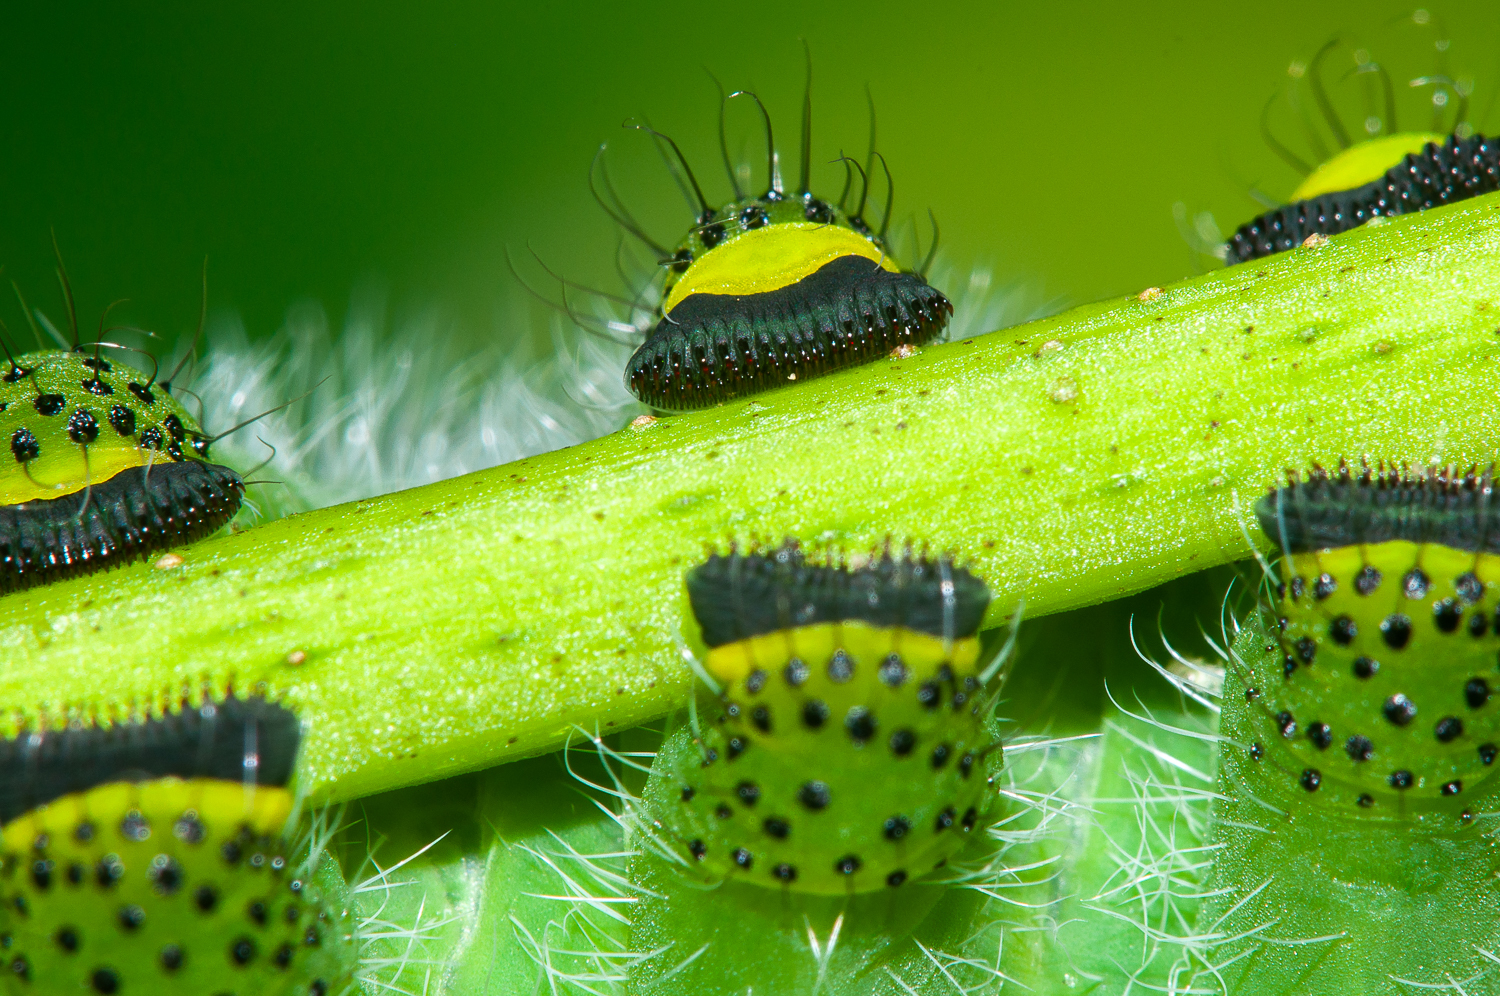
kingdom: Animalia
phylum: Arthropoda
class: Insecta
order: Lepidoptera
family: Saturniidae
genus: Rothschildia
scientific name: Rothschildia orizaba
